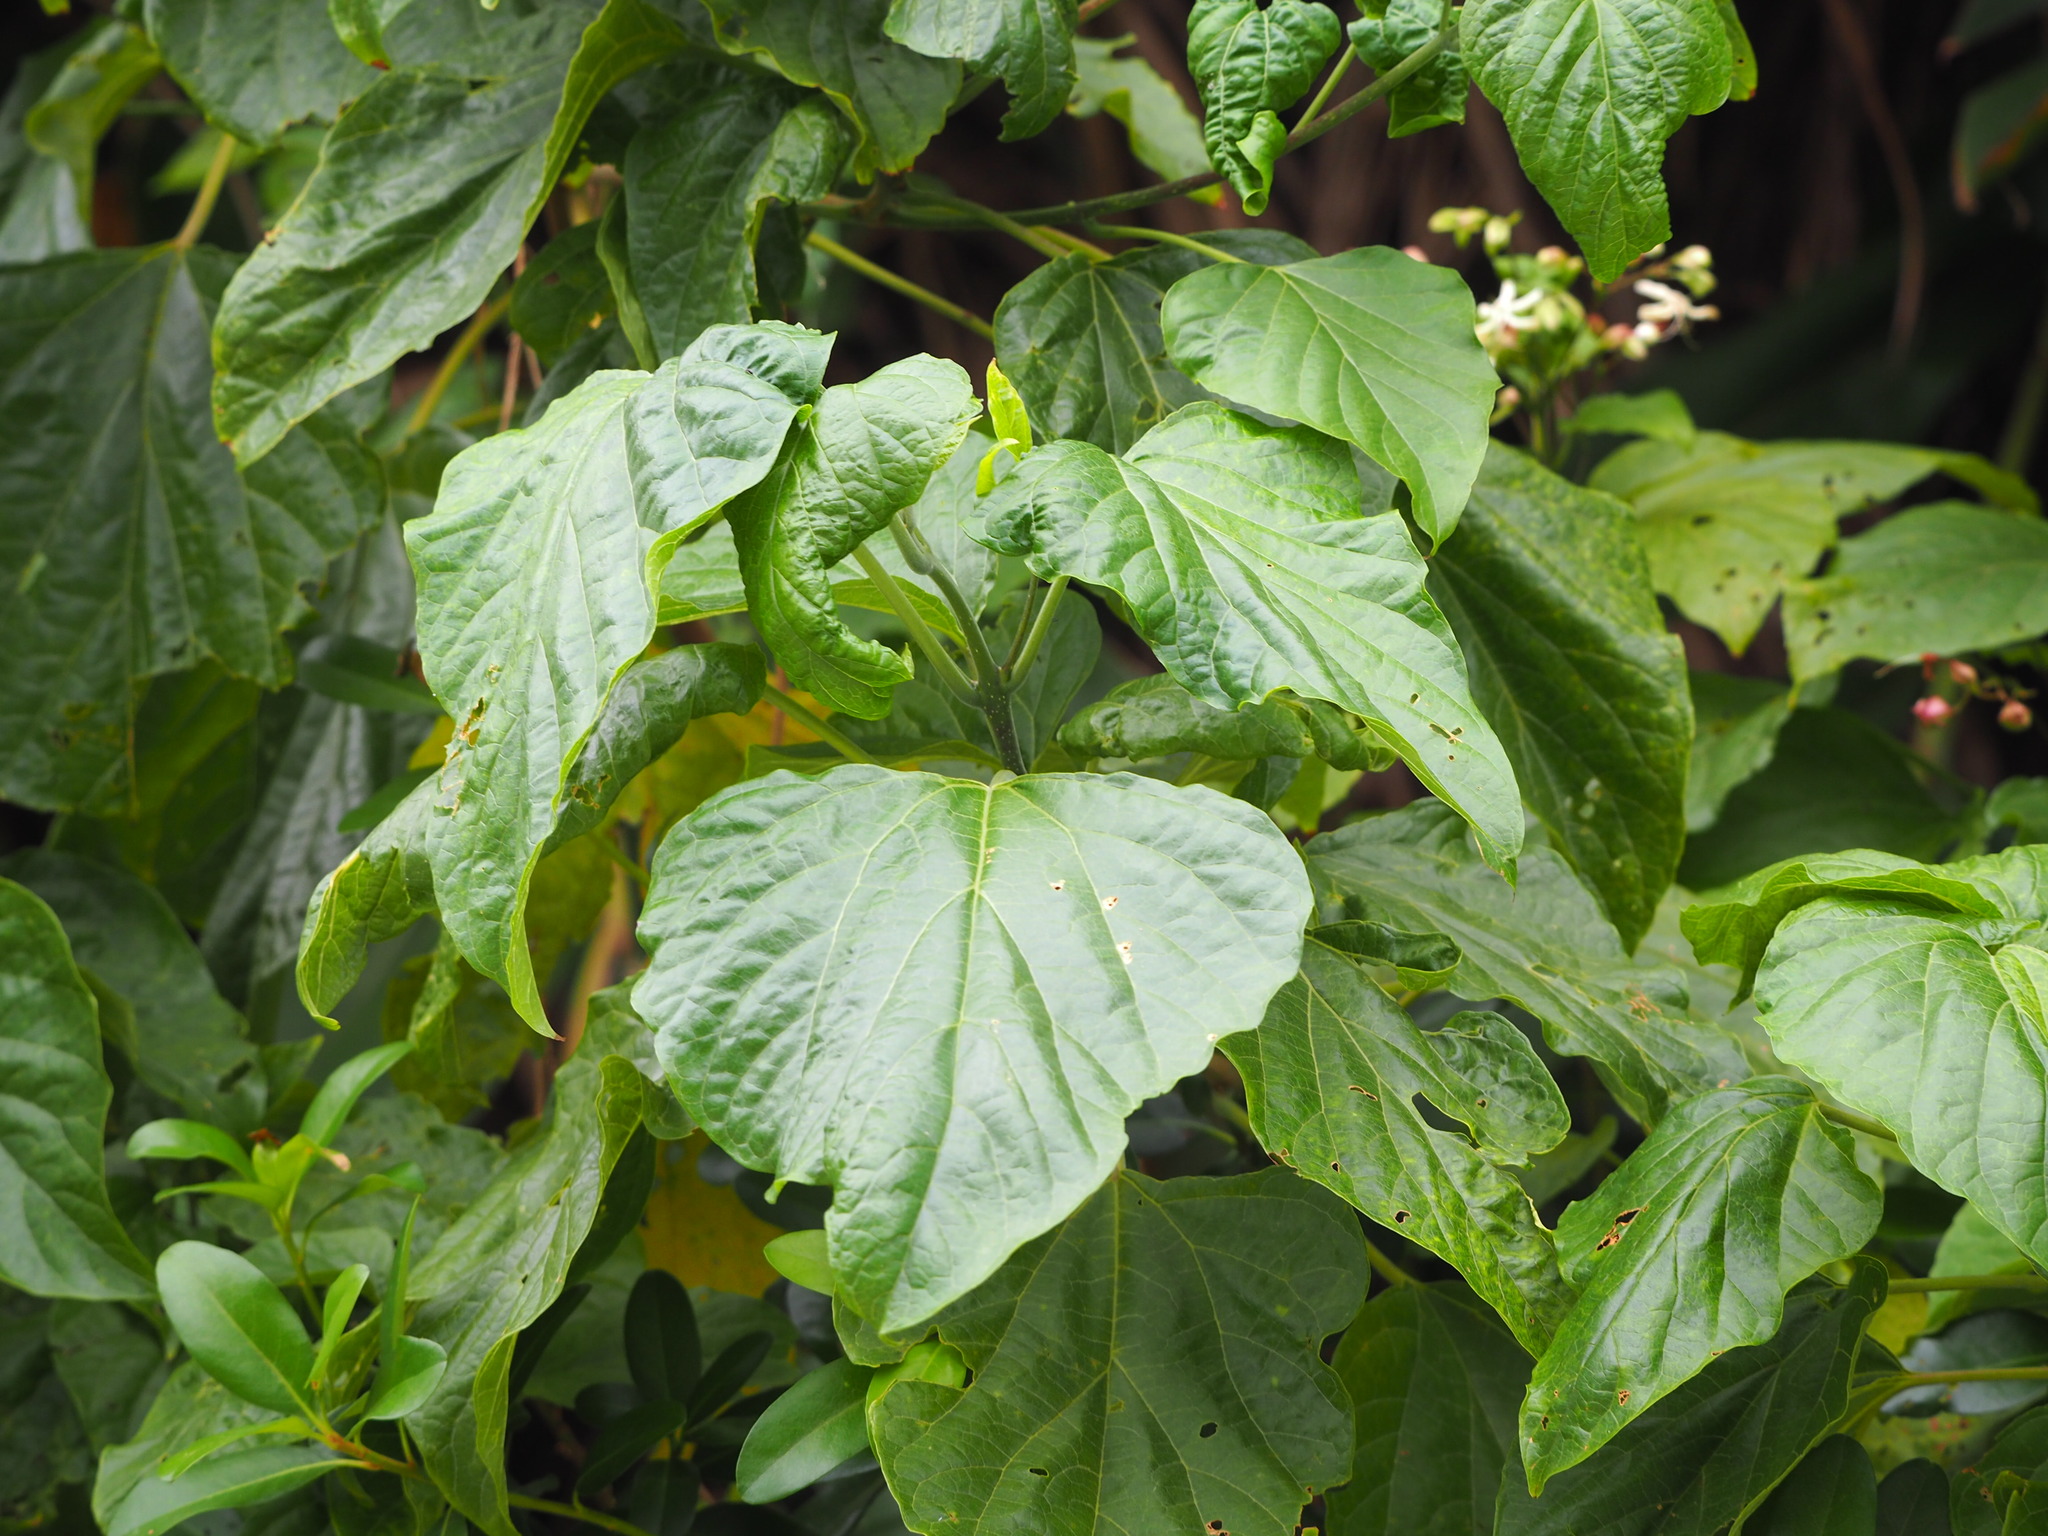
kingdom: Plantae
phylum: Tracheophyta
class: Magnoliopsida
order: Lamiales
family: Lamiaceae
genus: Clerodendrum
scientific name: Clerodendrum trichotomum
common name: Harlequin glorybower
